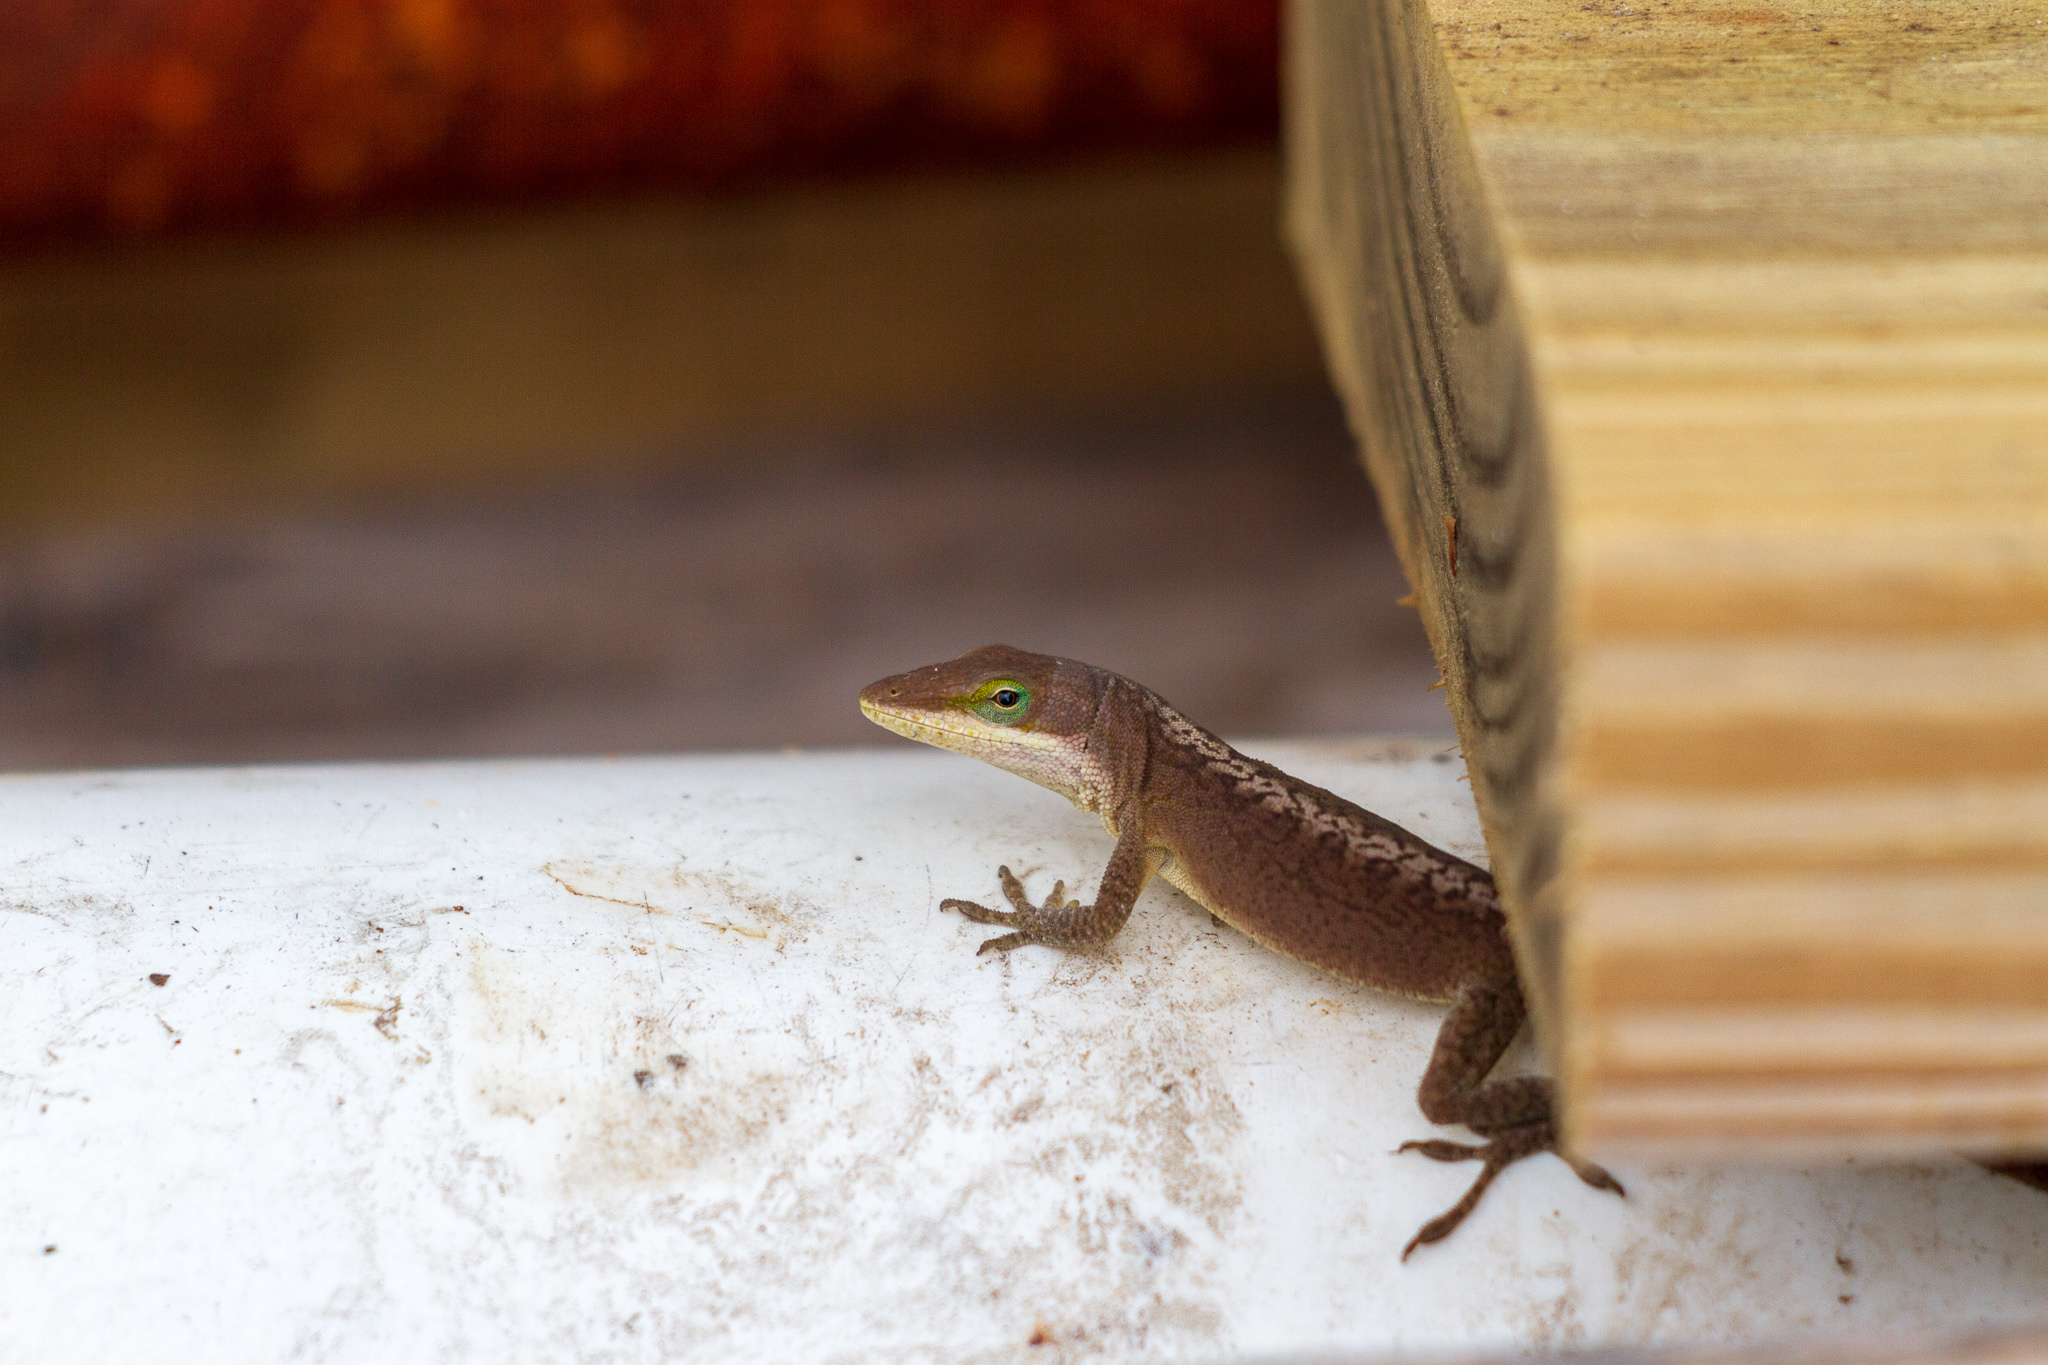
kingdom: Animalia
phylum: Chordata
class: Squamata
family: Dactyloidae
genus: Anolis
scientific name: Anolis carolinensis
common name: Green anole
